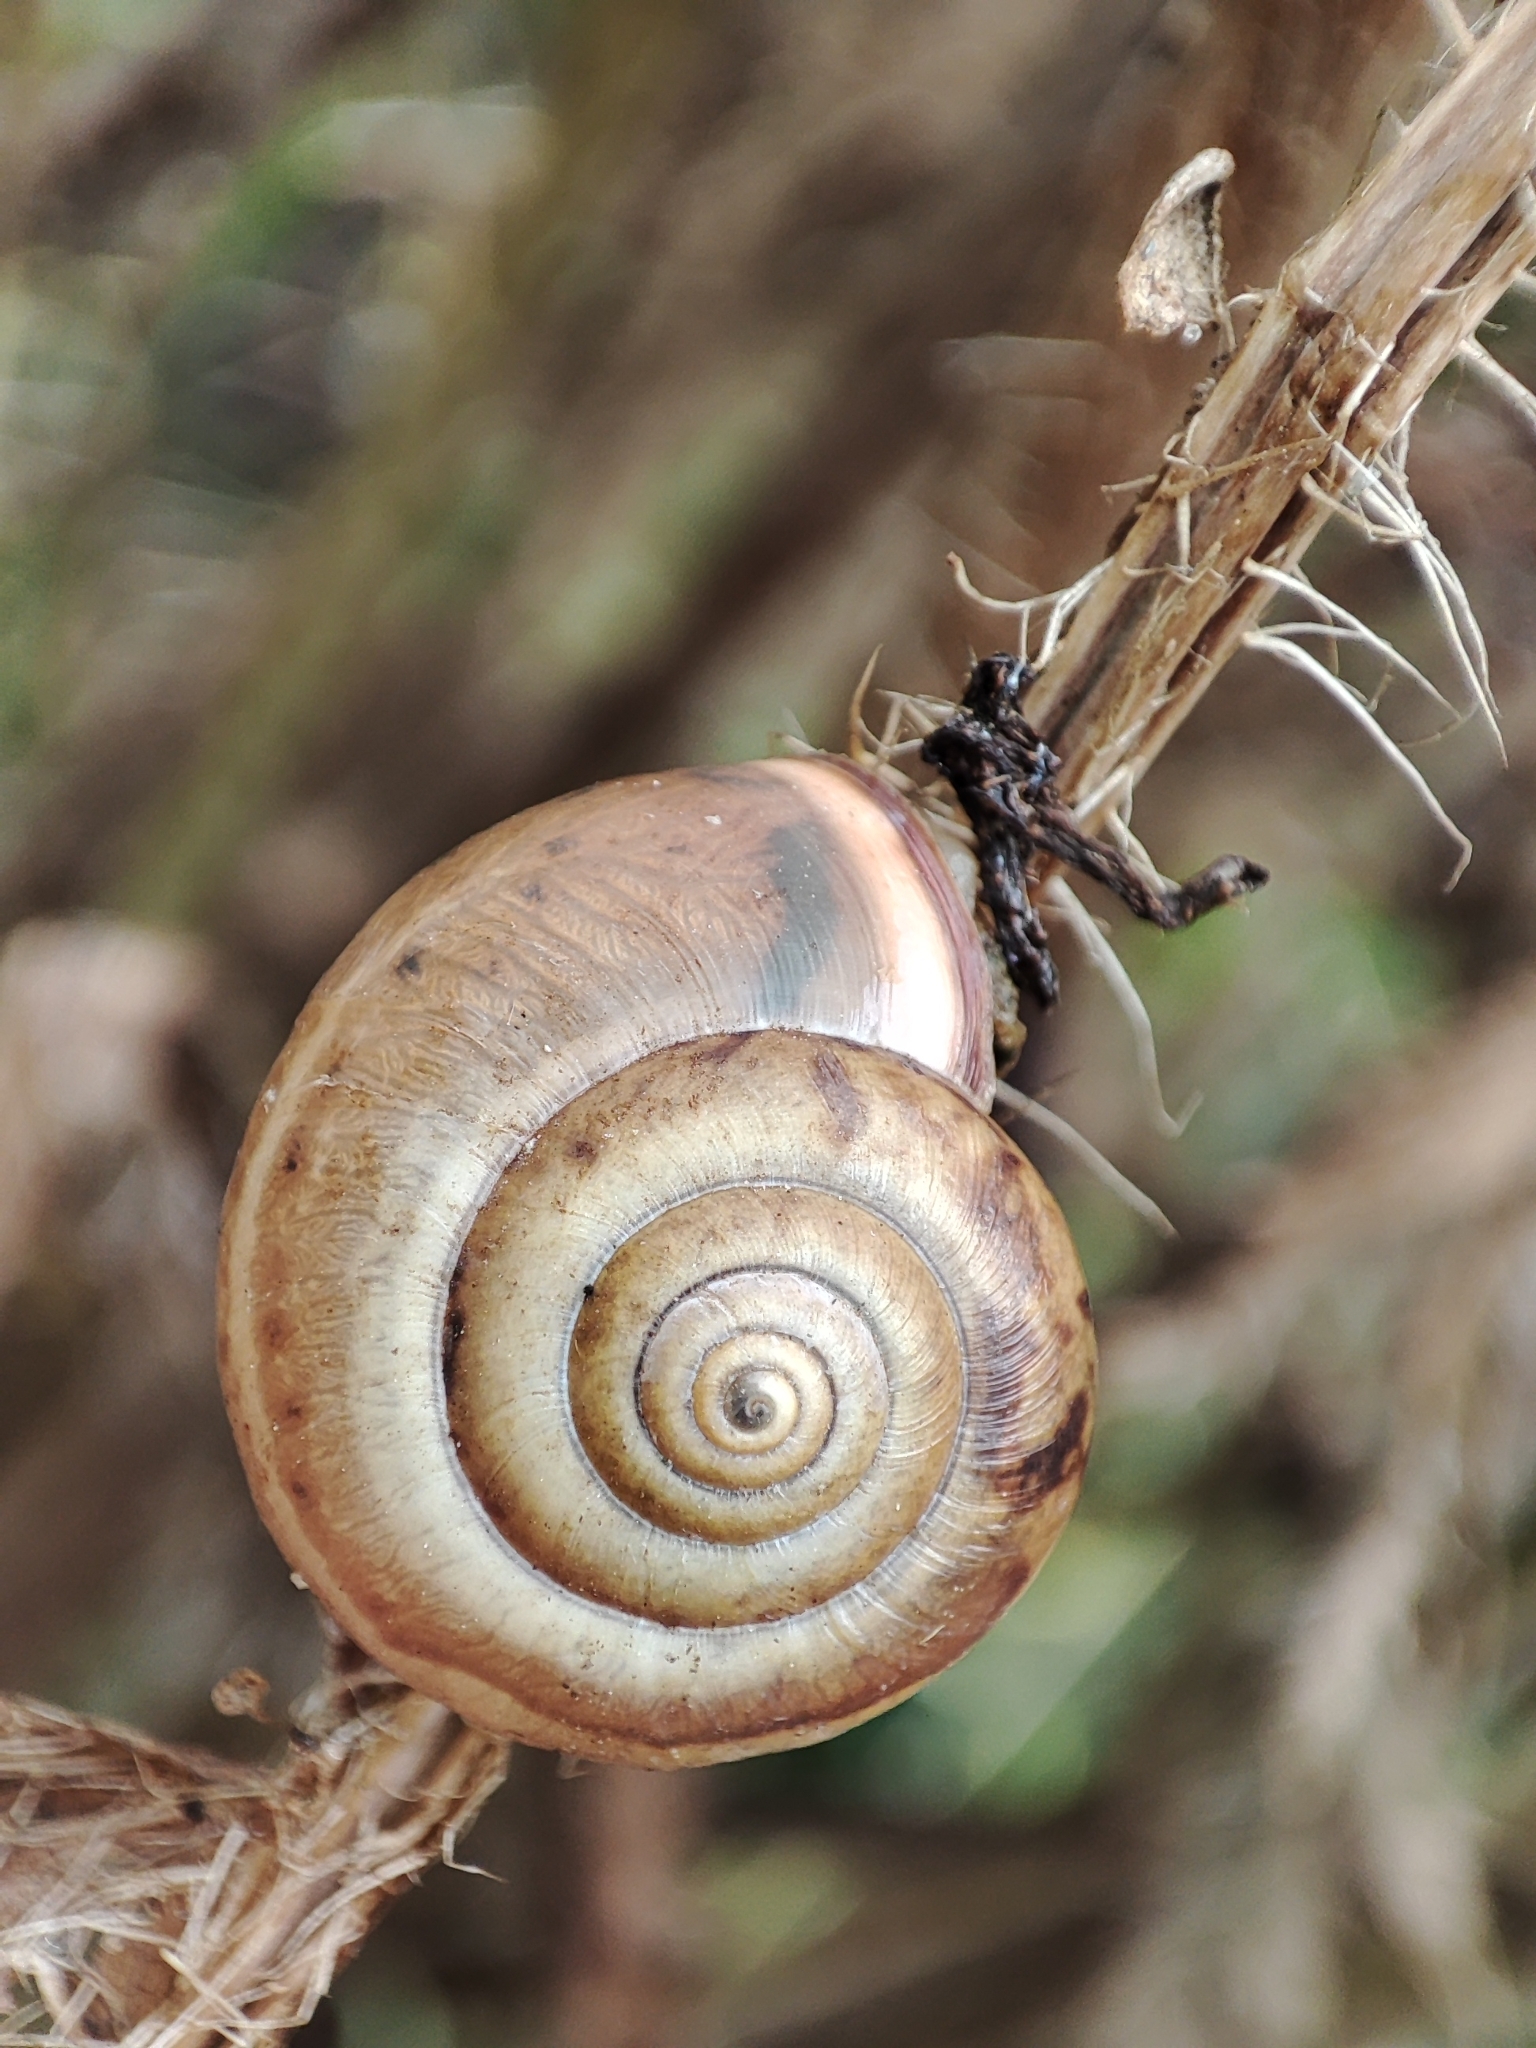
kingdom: Animalia
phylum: Mollusca
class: Gastropoda
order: Stylommatophora
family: Hygromiidae
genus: Monacha
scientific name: Monacha cartusiana
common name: Carthusian snail
